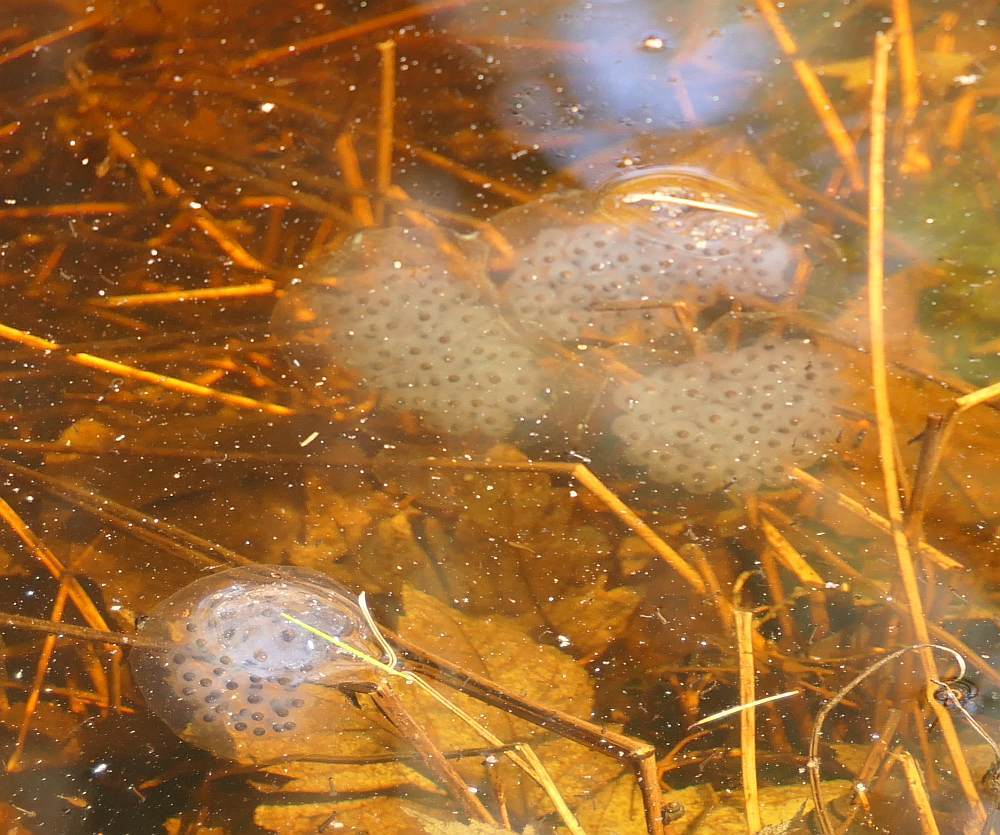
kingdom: Animalia
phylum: Chordata
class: Amphibia
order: Caudata
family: Ambystomatidae
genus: Ambystoma
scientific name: Ambystoma maculatum
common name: Spotted salamander
